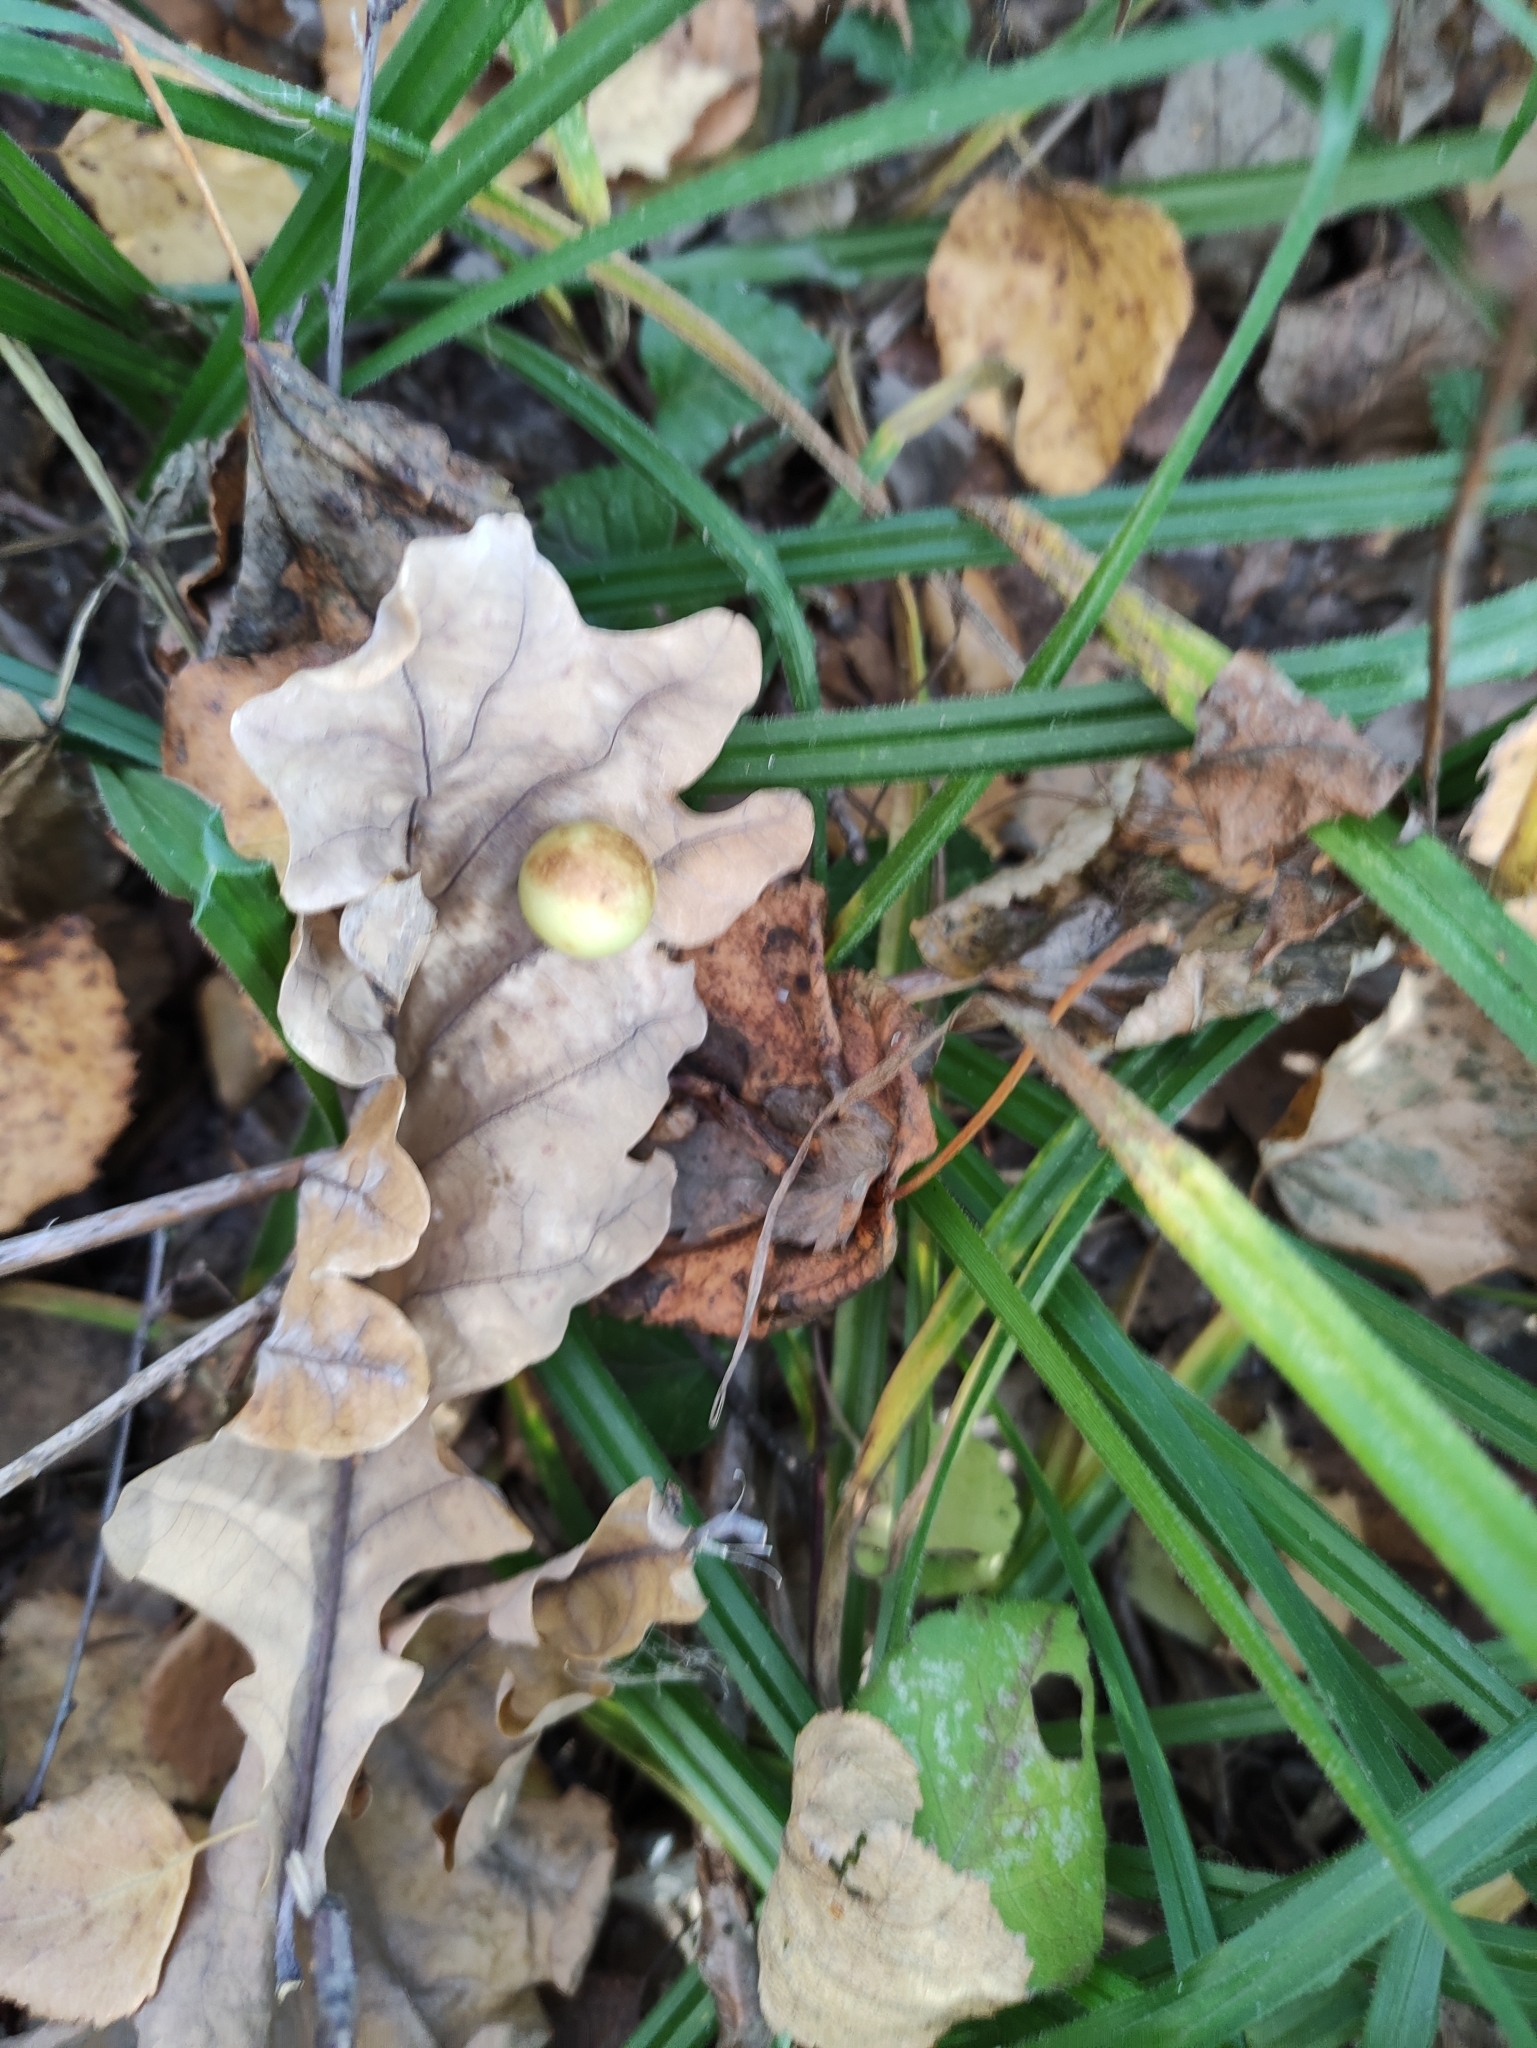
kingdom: Animalia
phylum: Arthropoda
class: Insecta
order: Hymenoptera
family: Cynipidae
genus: Cynips
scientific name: Cynips quercusfolii
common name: Cherry gall
